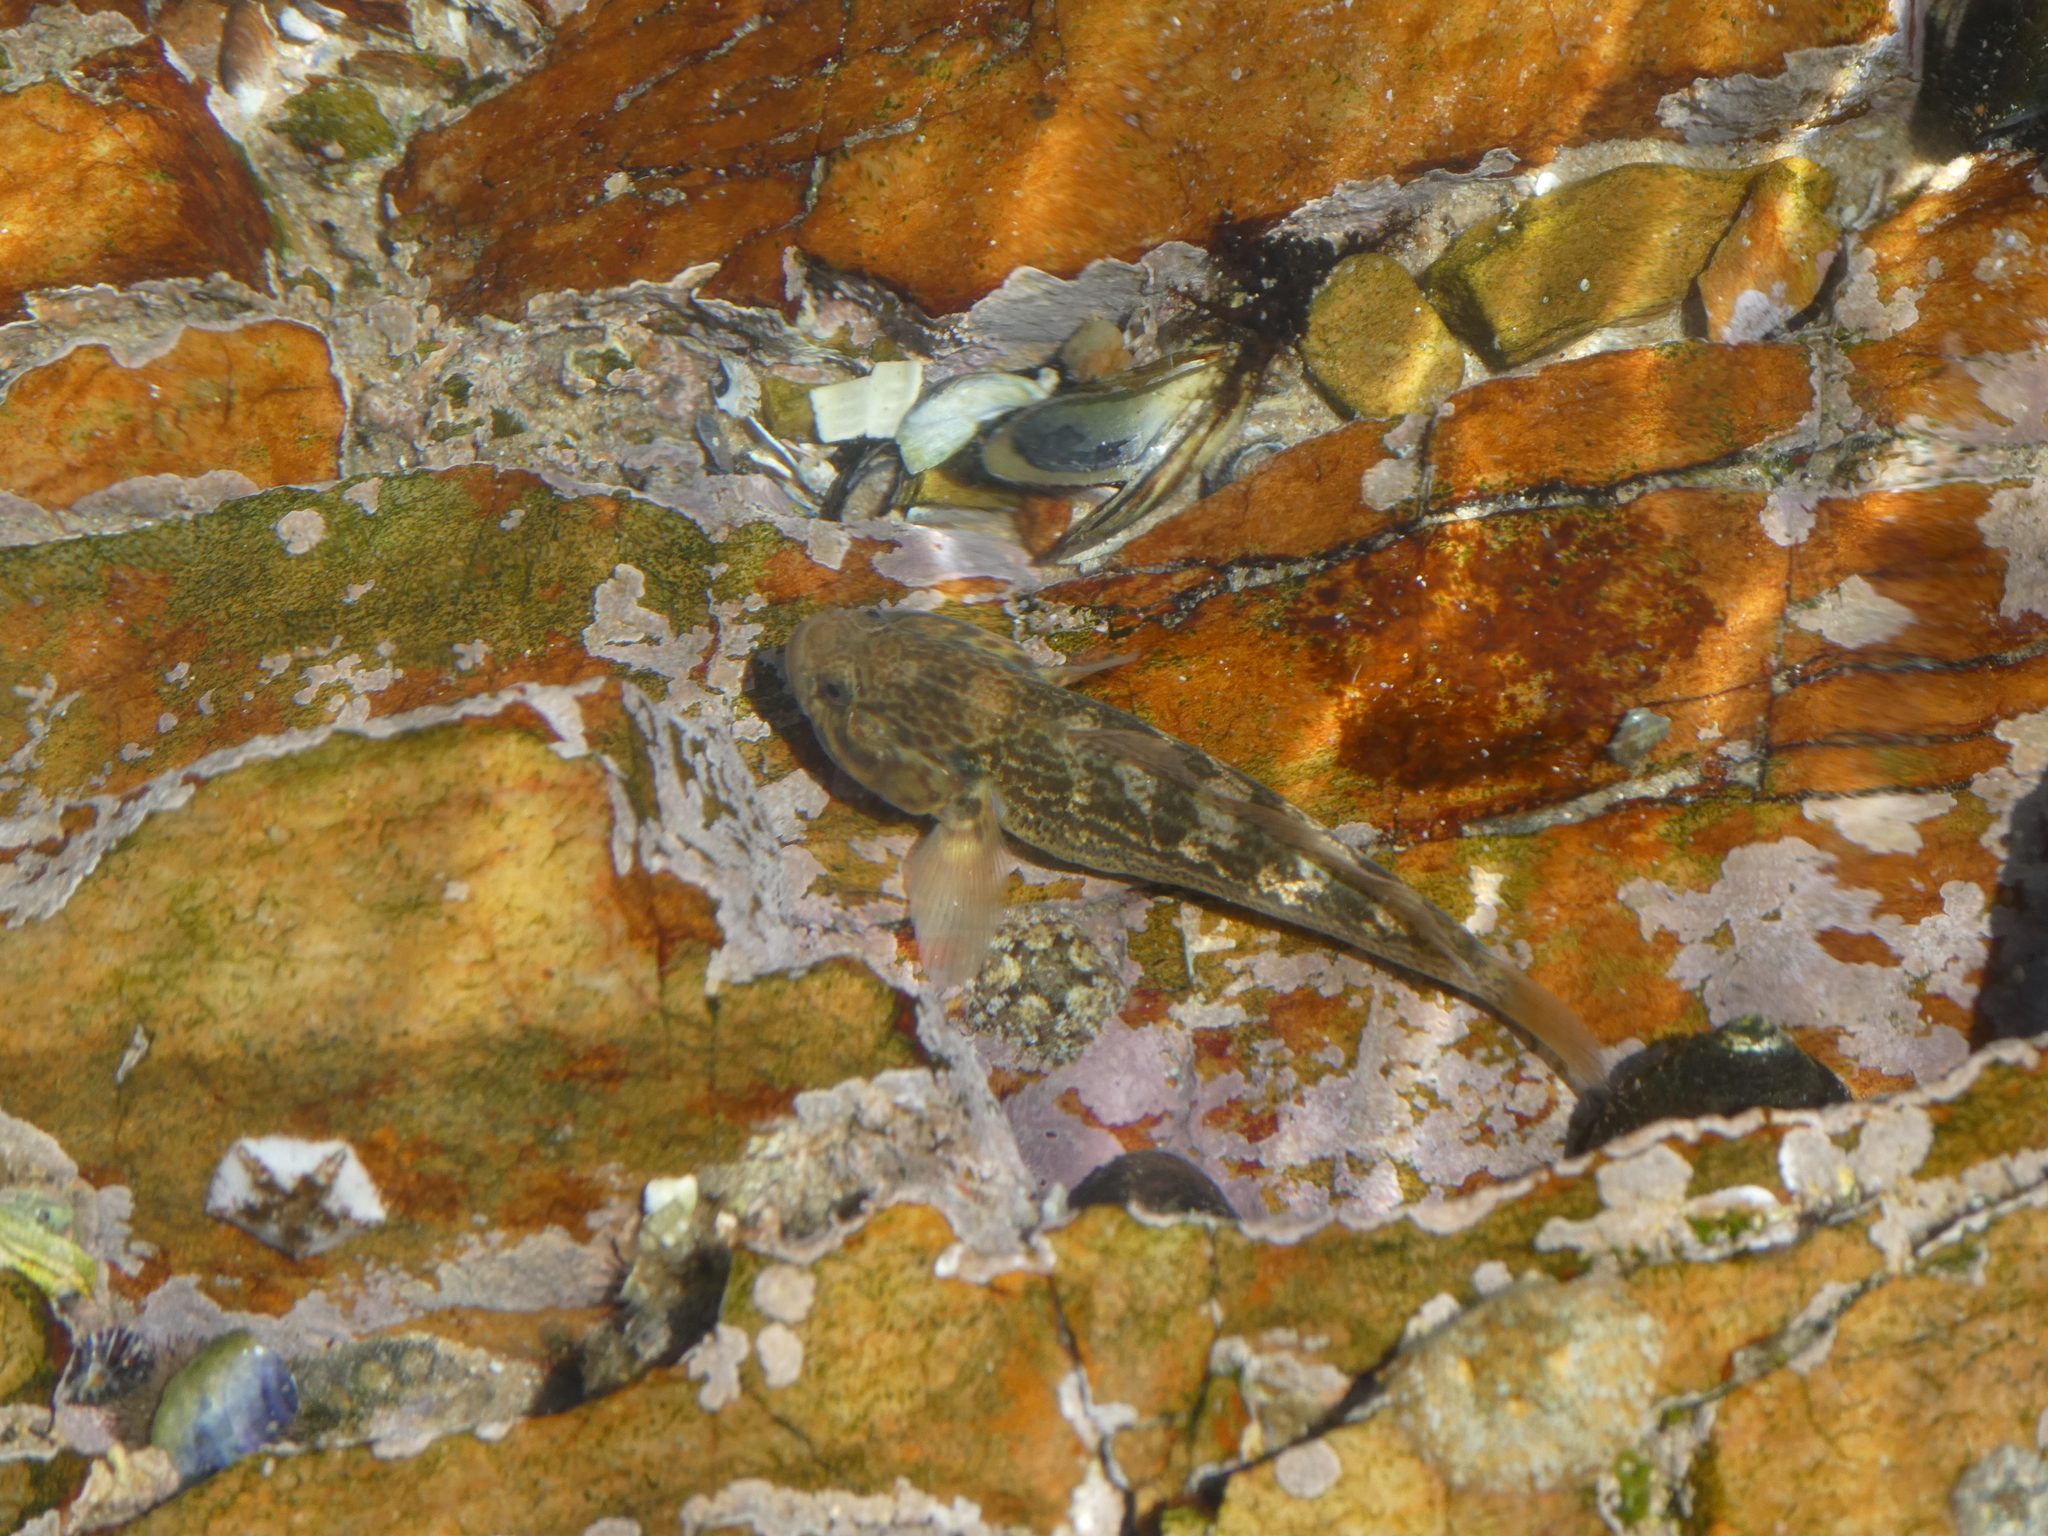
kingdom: Animalia
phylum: Chordata
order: Perciformes
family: Gobiidae
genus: Caffrogobius
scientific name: Caffrogobius caffer
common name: Banded goby
